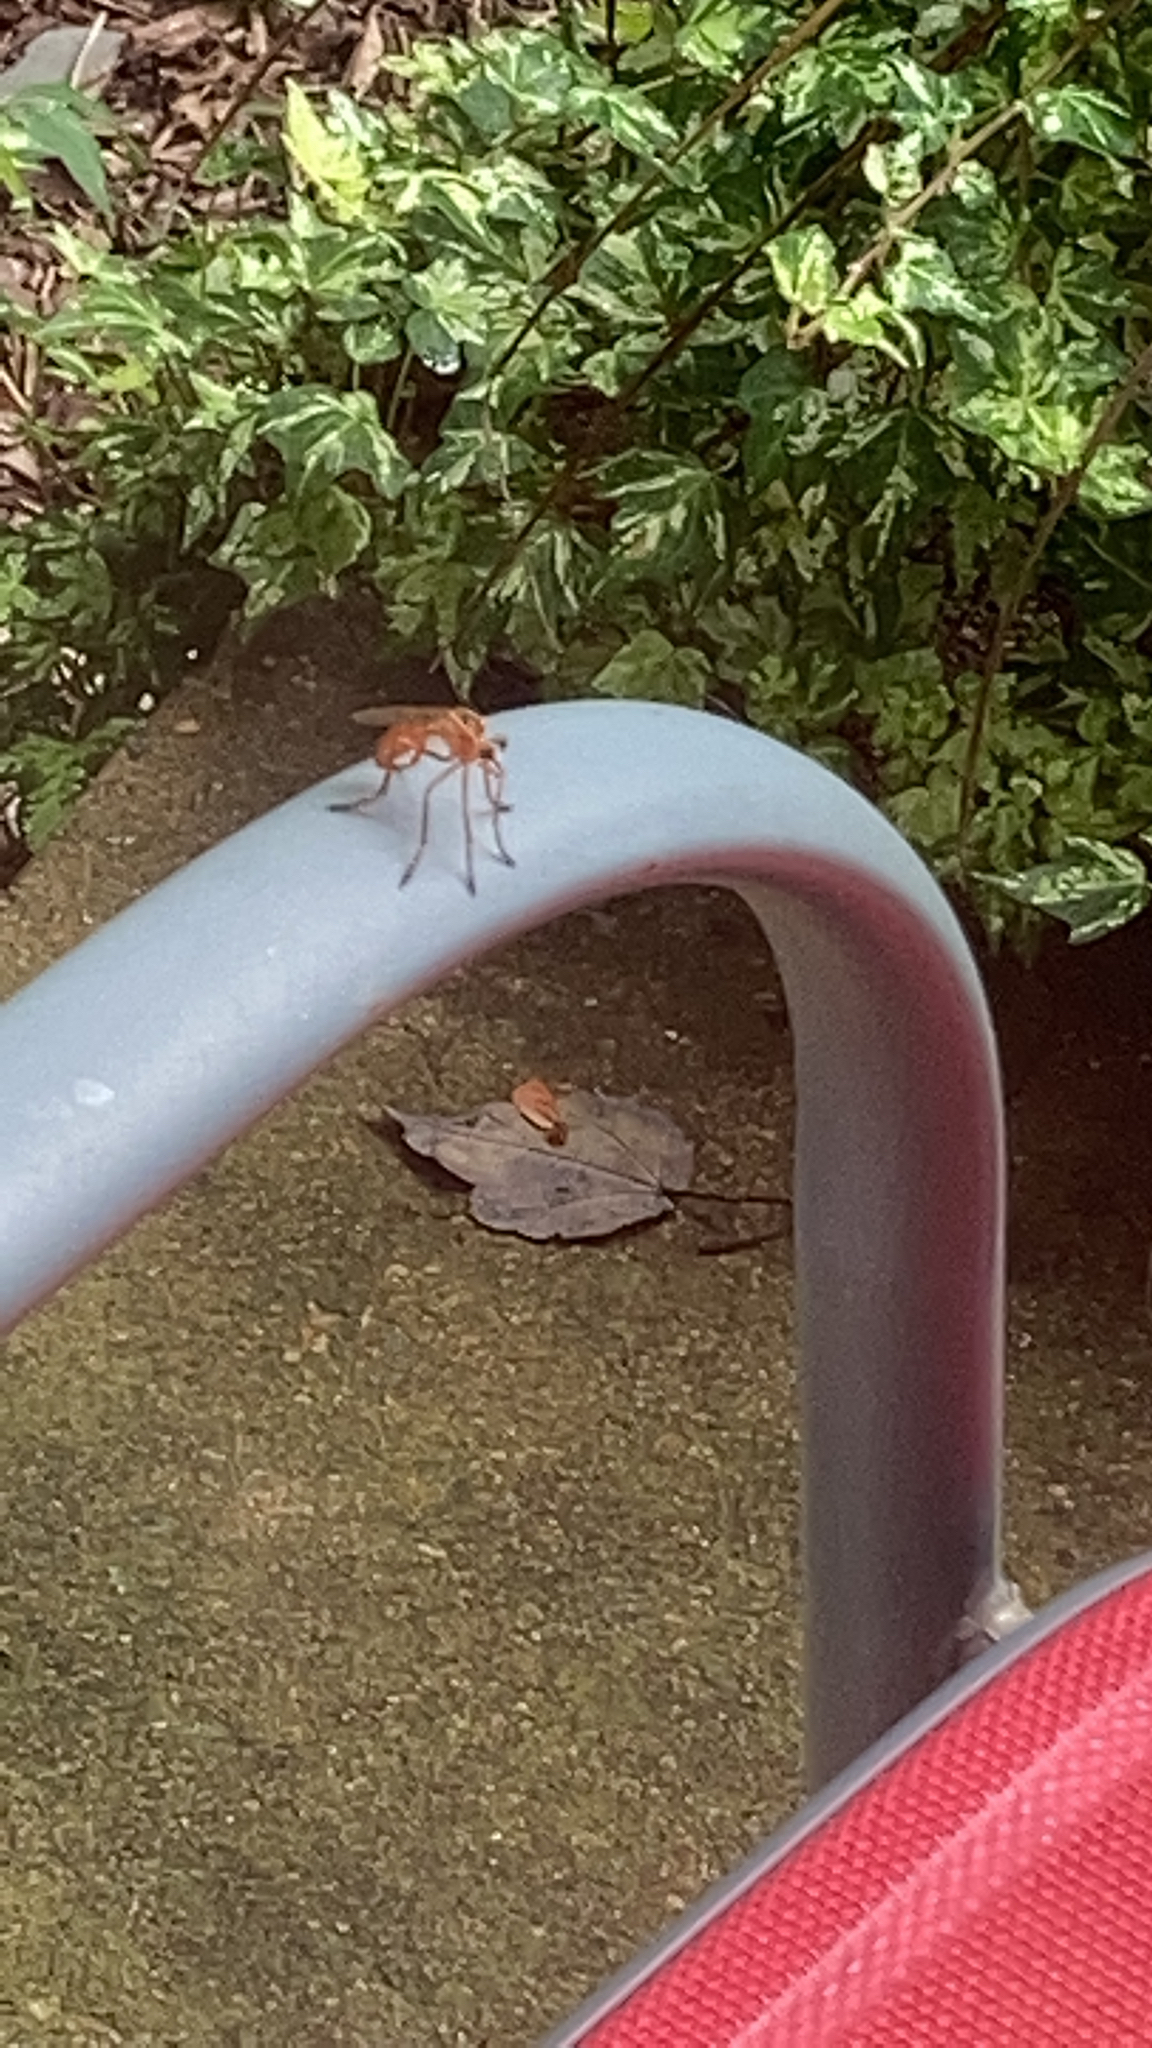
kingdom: Animalia
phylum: Arthropoda
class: Insecta
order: Diptera
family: Asilidae
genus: Diogmites
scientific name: Diogmites neoternatus
